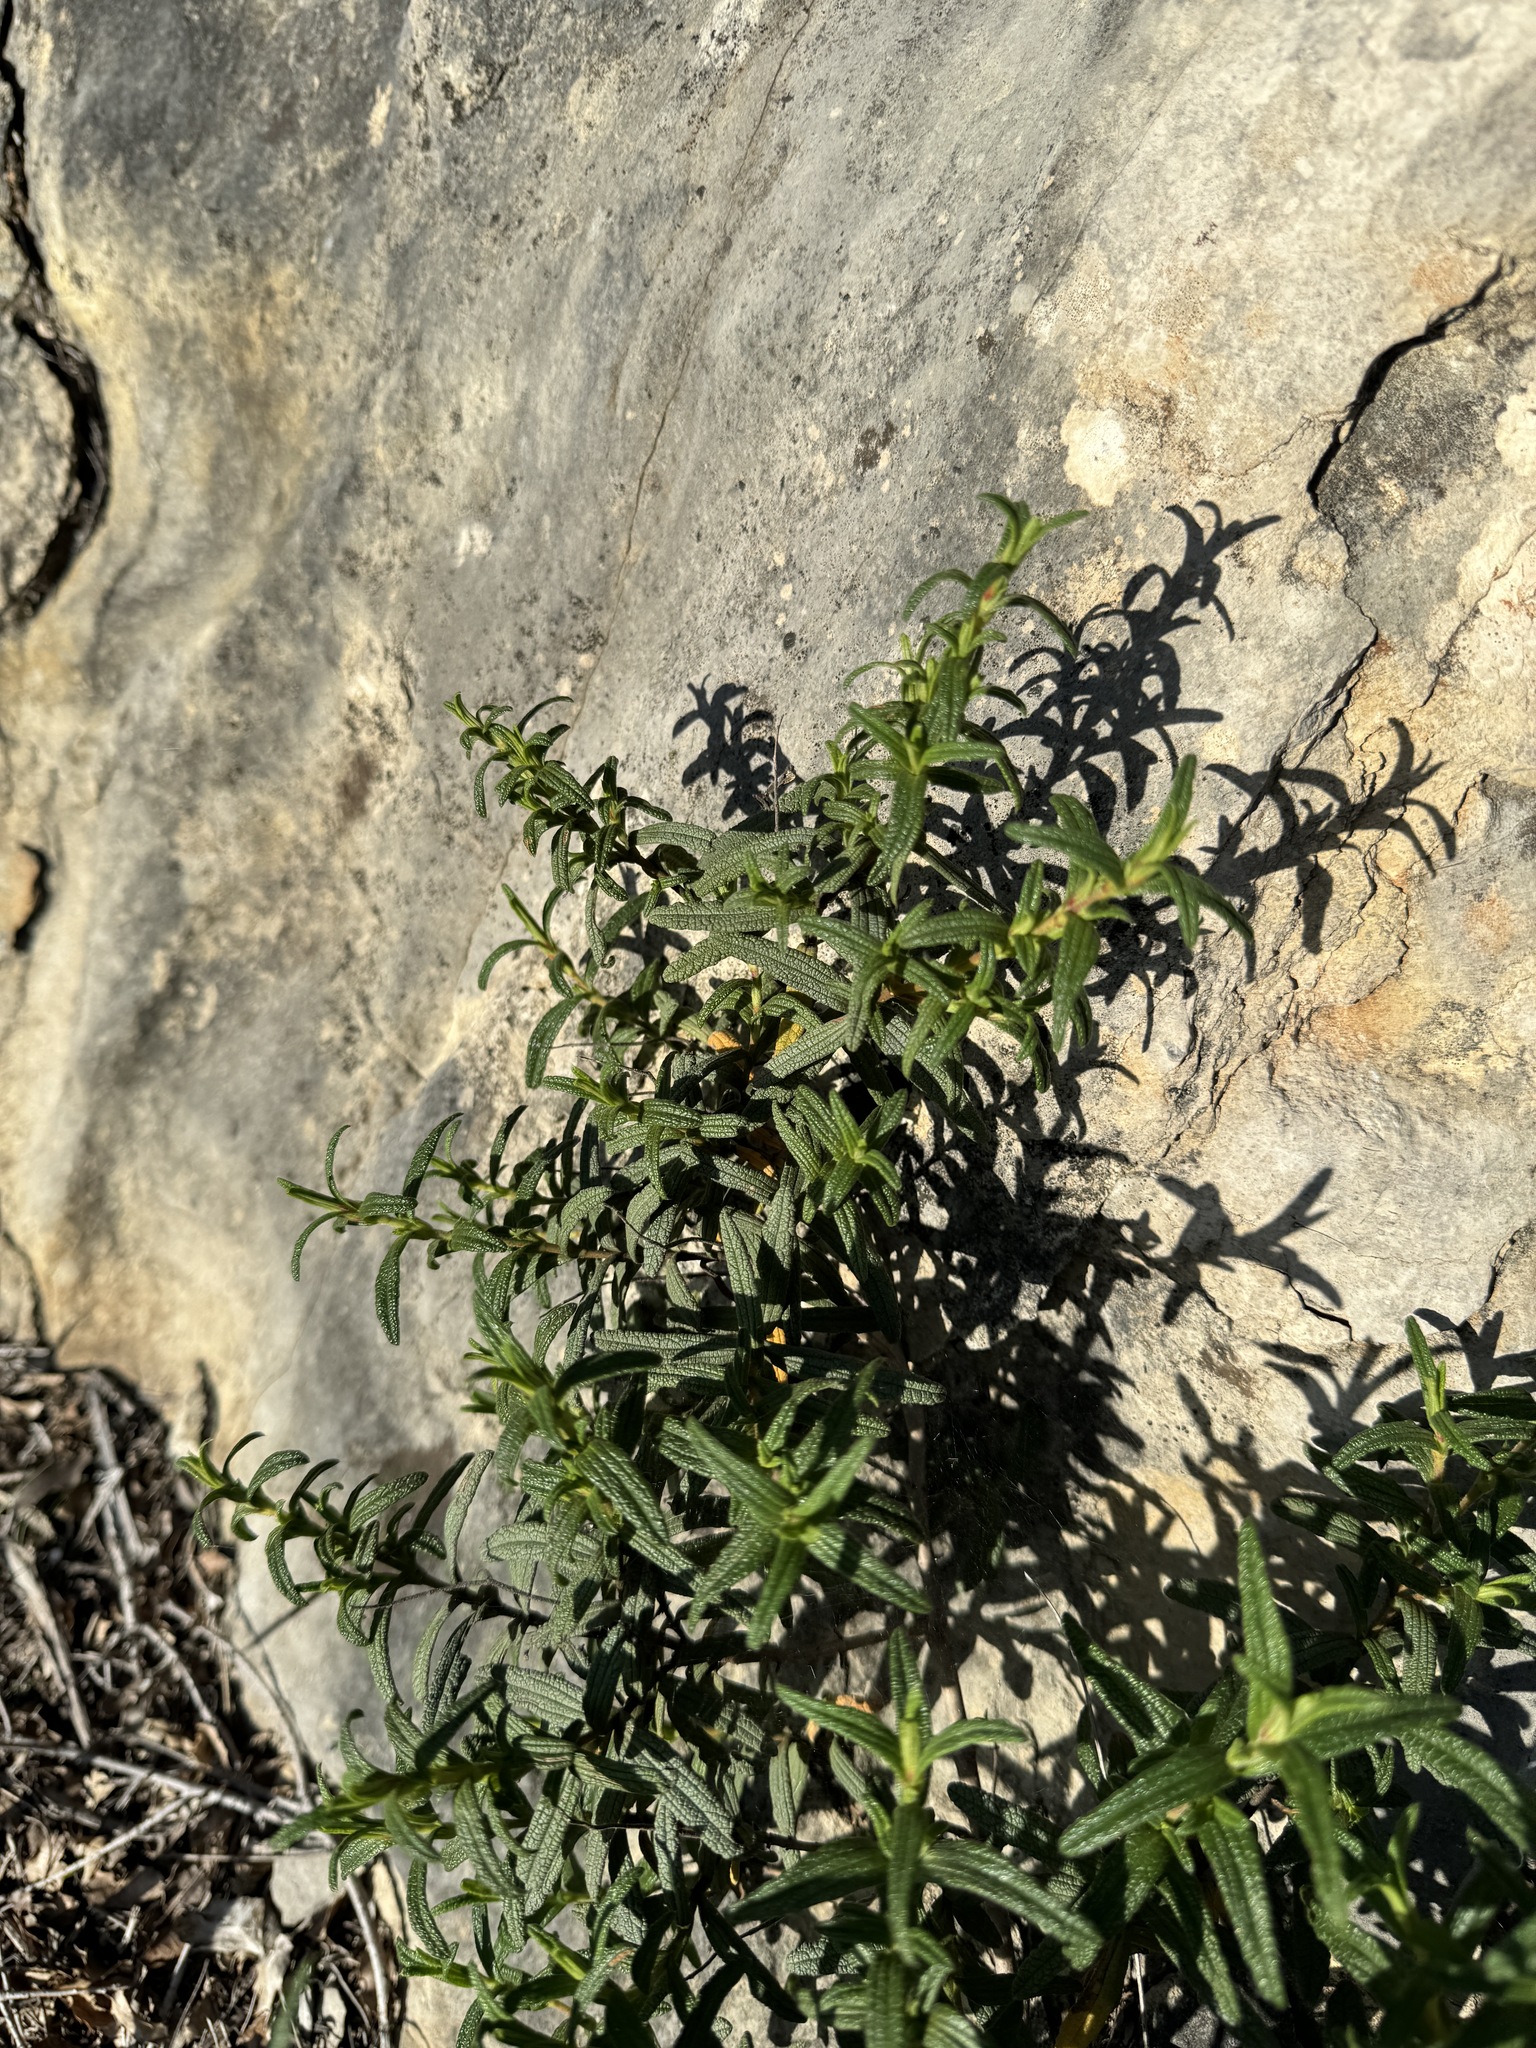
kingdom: Plantae
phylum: Tracheophyta
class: Magnoliopsida
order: Malvales
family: Cistaceae
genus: Cistus
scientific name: Cistus monspeliensis
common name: Montpelier cistus
